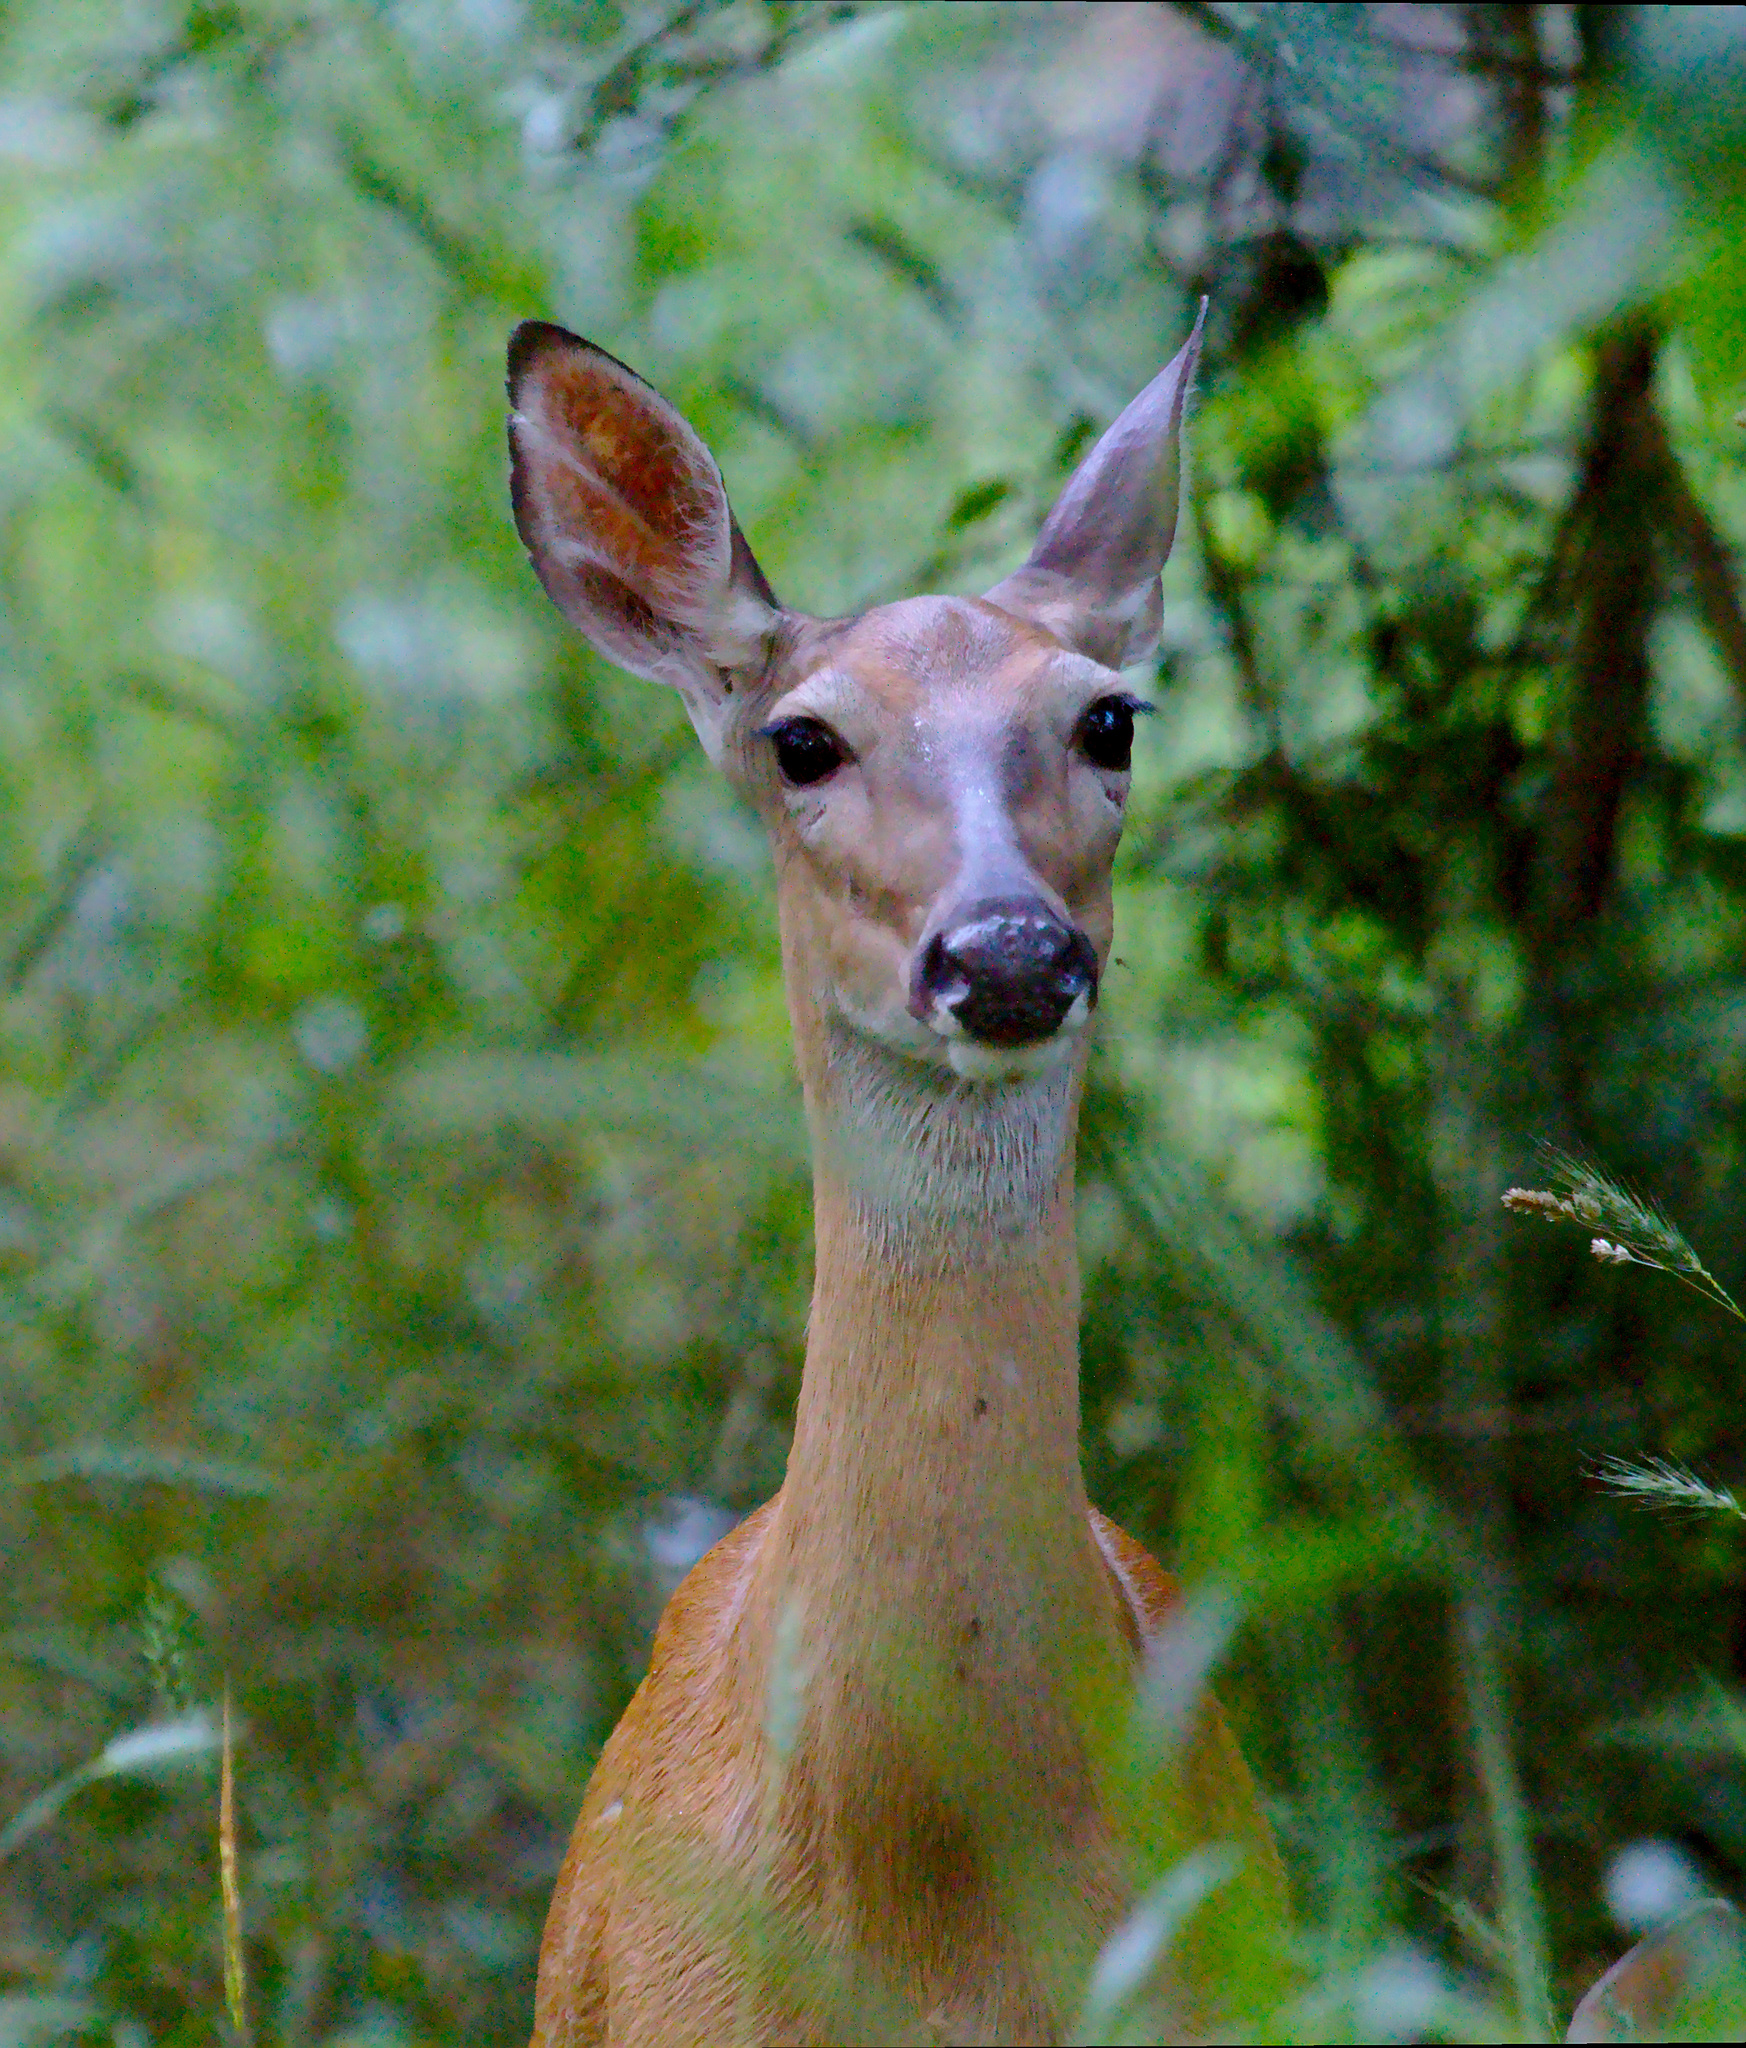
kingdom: Animalia
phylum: Chordata
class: Mammalia
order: Artiodactyla
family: Cervidae
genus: Odocoileus
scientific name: Odocoileus virginianus
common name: White-tailed deer
